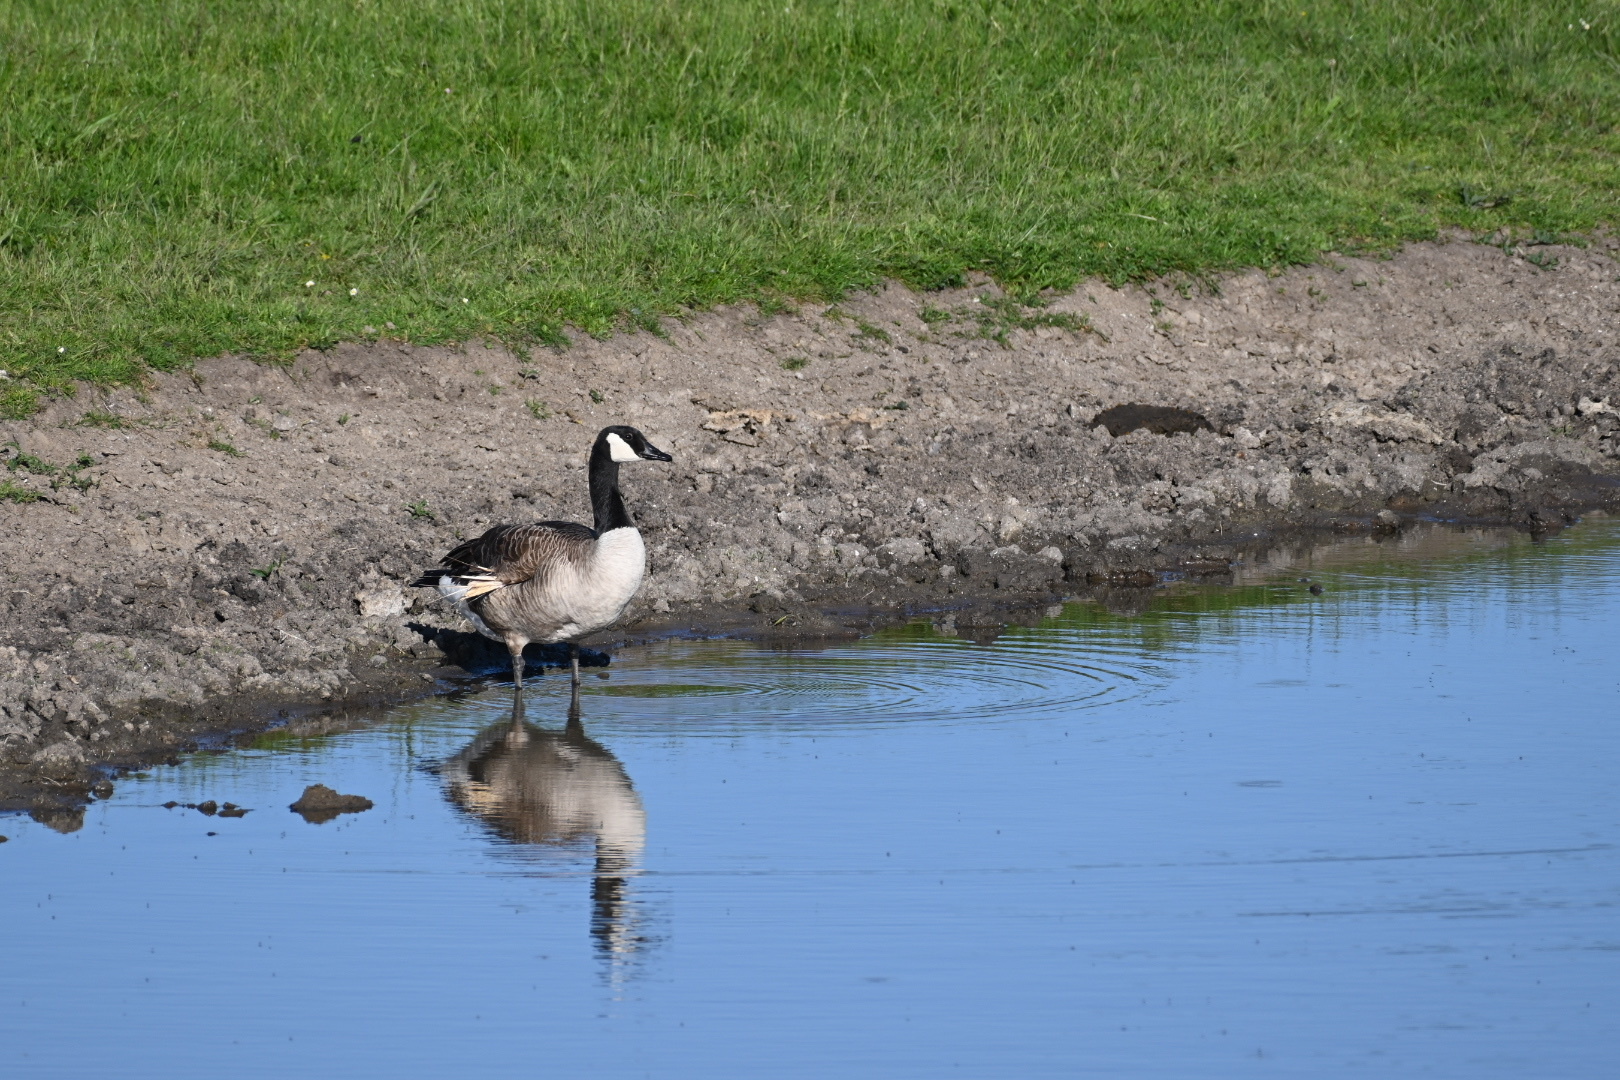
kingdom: Animalia
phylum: Chordata
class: Aves
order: Anseriformes
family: Anatidae
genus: Branta
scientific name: Branta canadensis
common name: Canada goose
